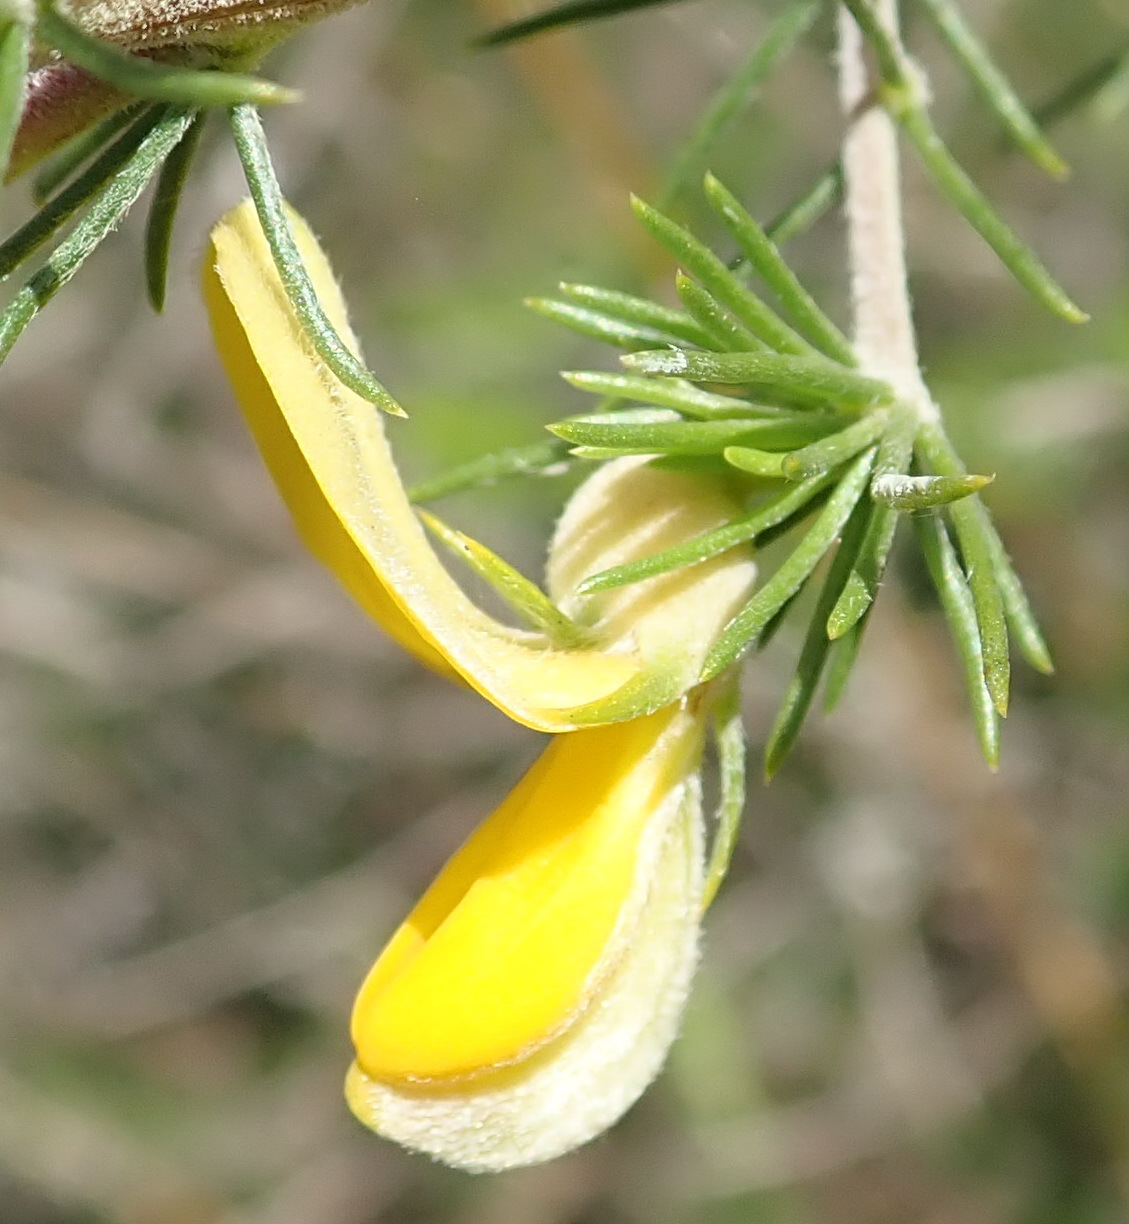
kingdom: Plantae
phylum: Tracheophyta
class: Magnoliopsida
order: Fabales
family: Fabaceae
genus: Aspalathus
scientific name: Aspalathus kougaensis
